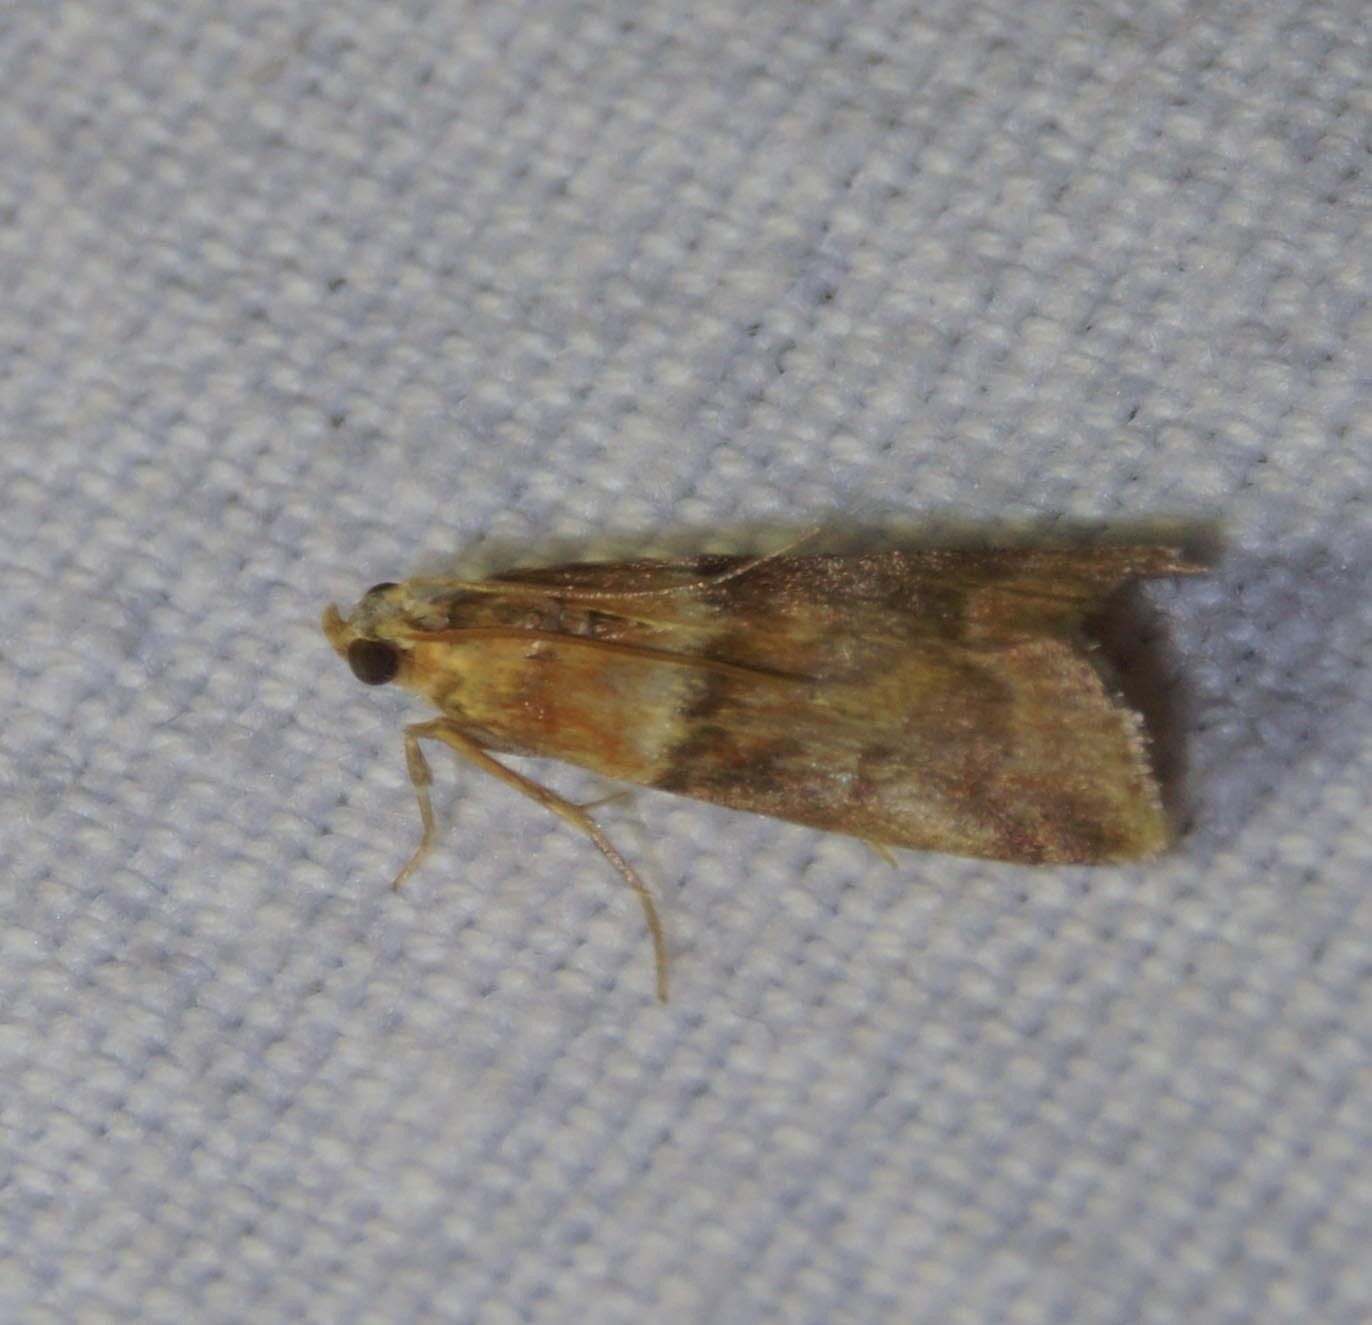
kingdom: Animalia
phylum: Arthropoda
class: Insecta
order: Lepidoptera
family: Pyralidae
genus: Acrobasis
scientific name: Acrobasis repandana
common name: Warted knot-horn
